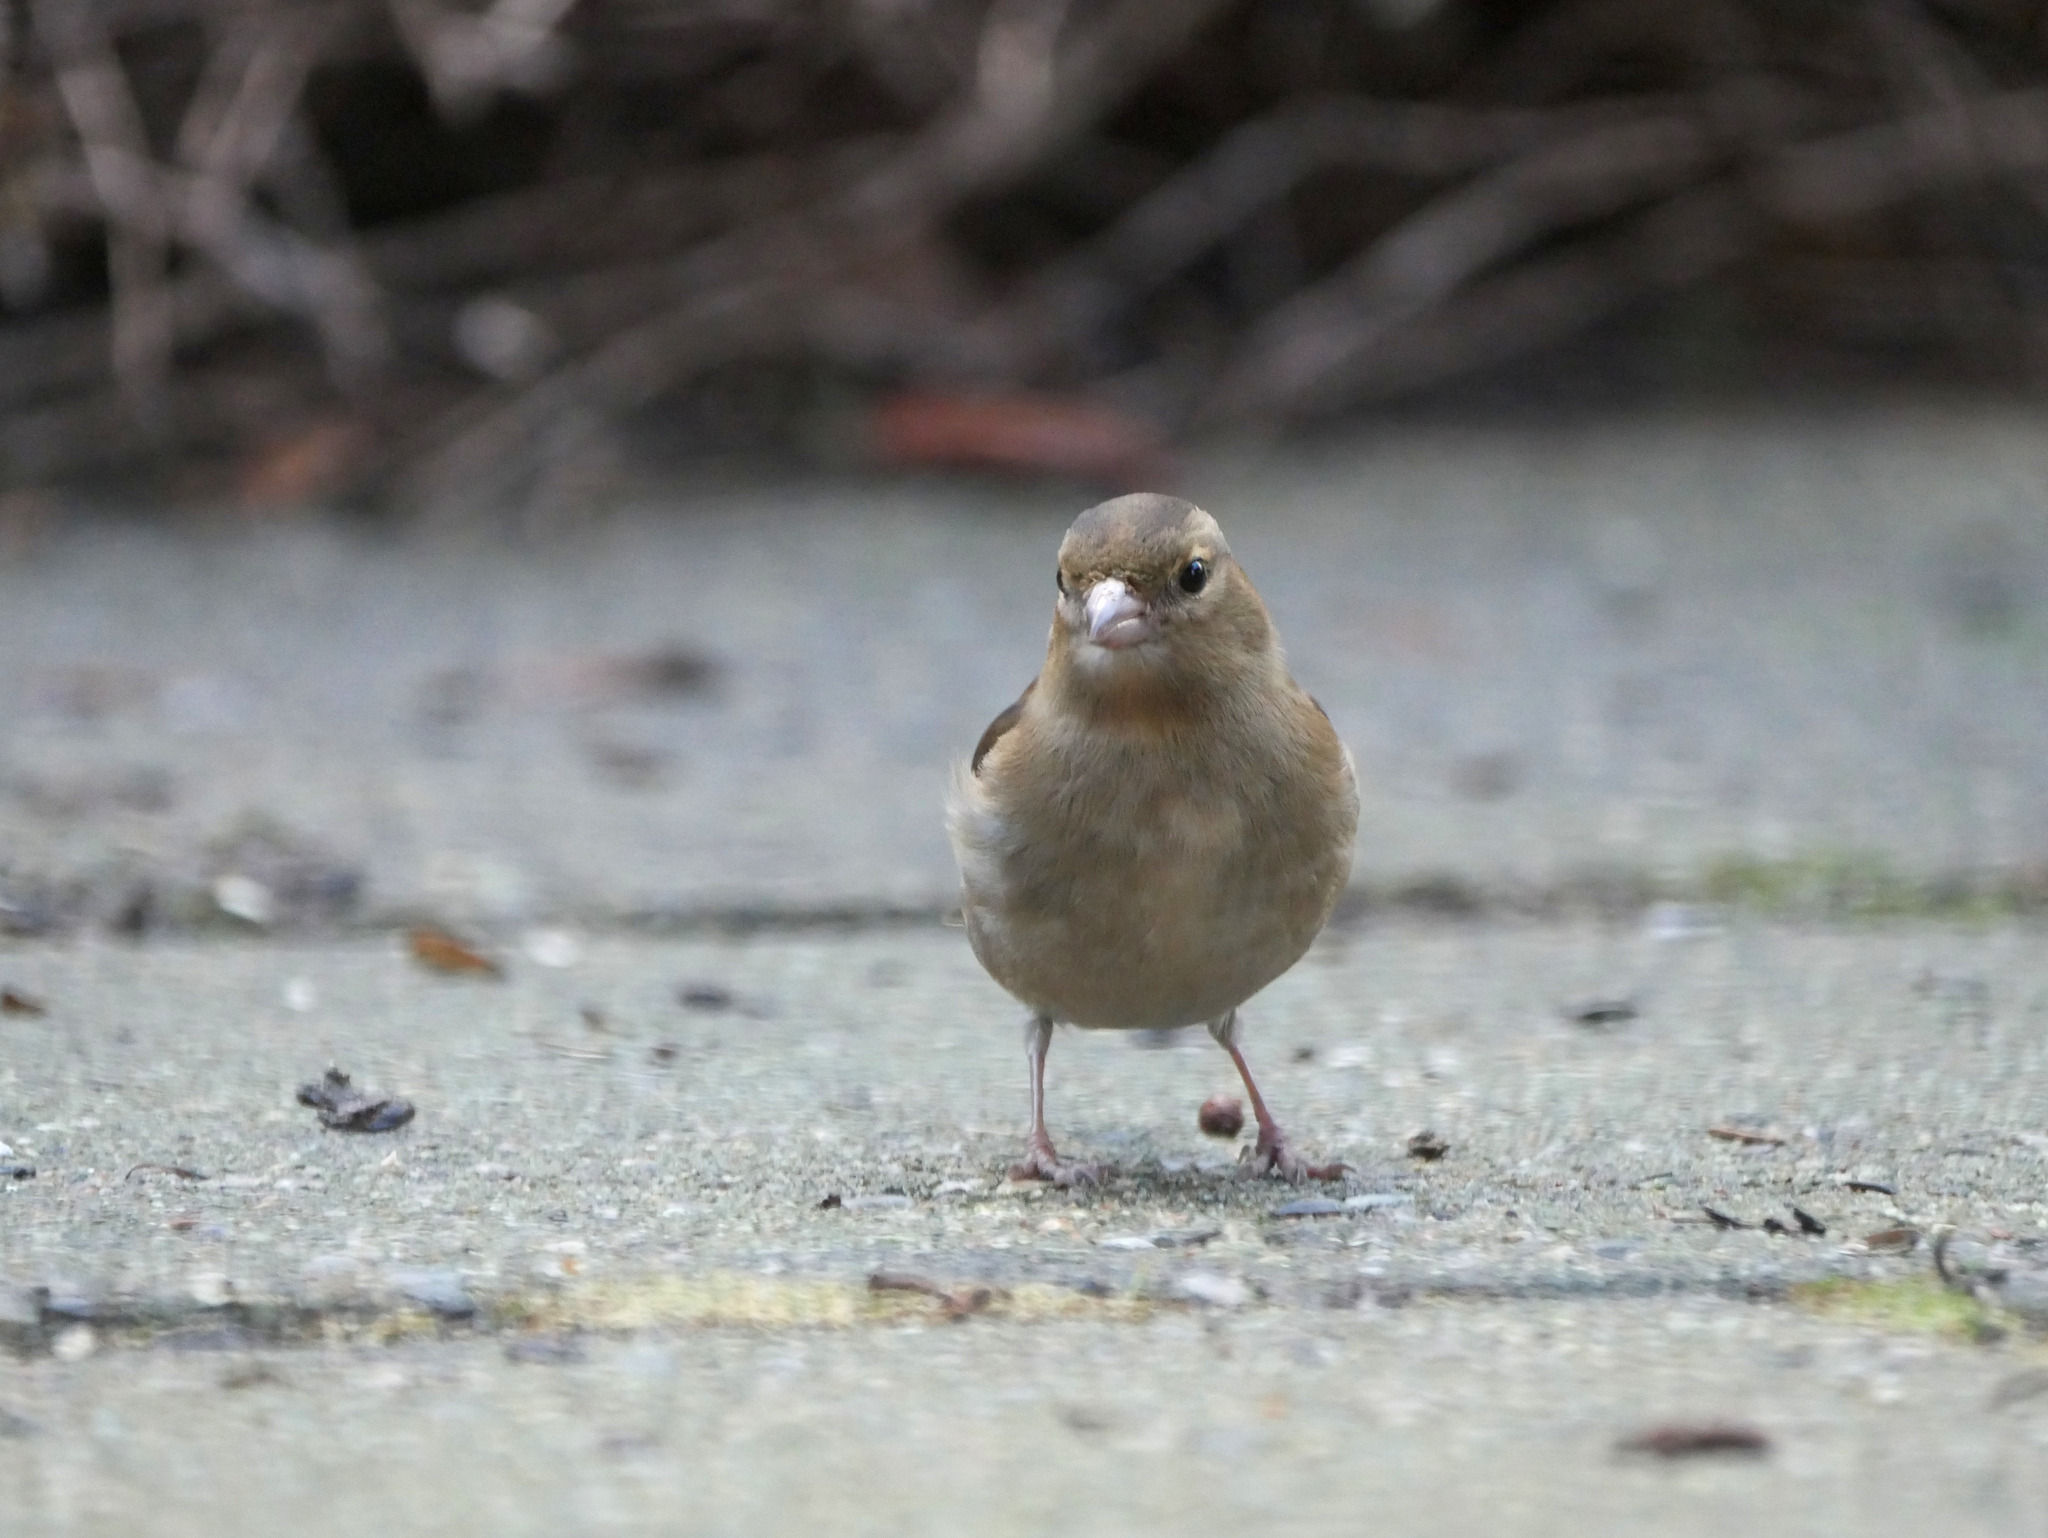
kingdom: Animalia
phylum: Chordata
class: Aves
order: Passeriformes
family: Fringillidae
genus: Fringilla
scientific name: Fringilla coelebs
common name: Common chaffinch
